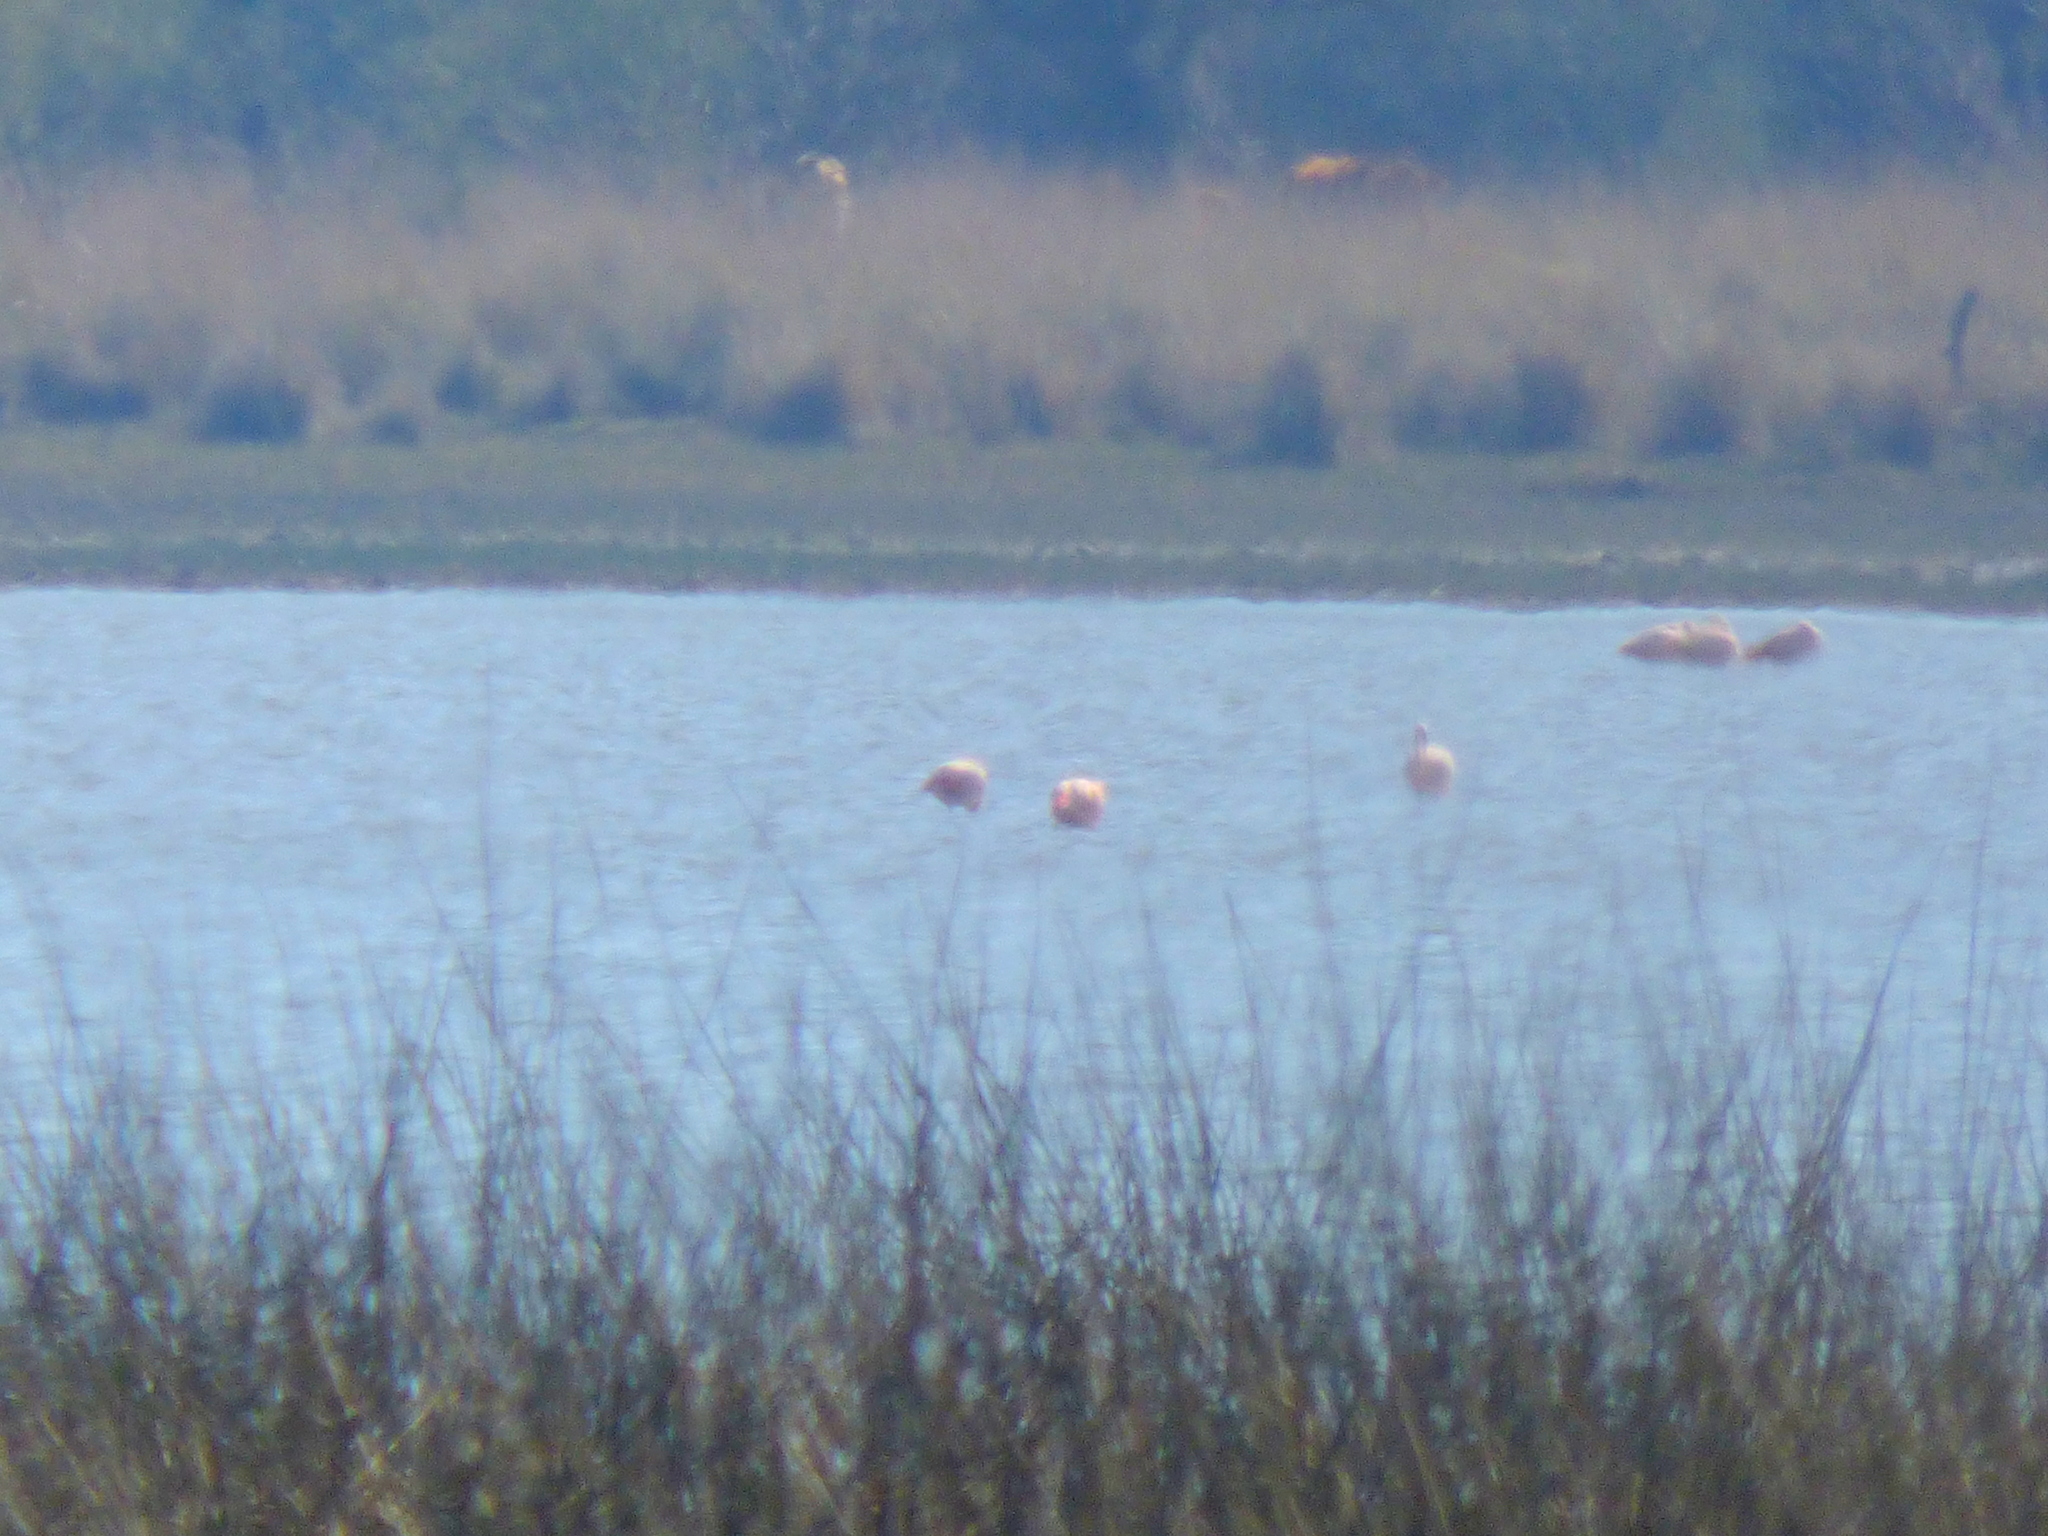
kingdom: Animalia
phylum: Chordata
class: Aves
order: Phoenicopteriformes
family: Phoenicopteridae
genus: Phoenicopterus
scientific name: Phoenicopterus chilensis
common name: Chilean flamingo
